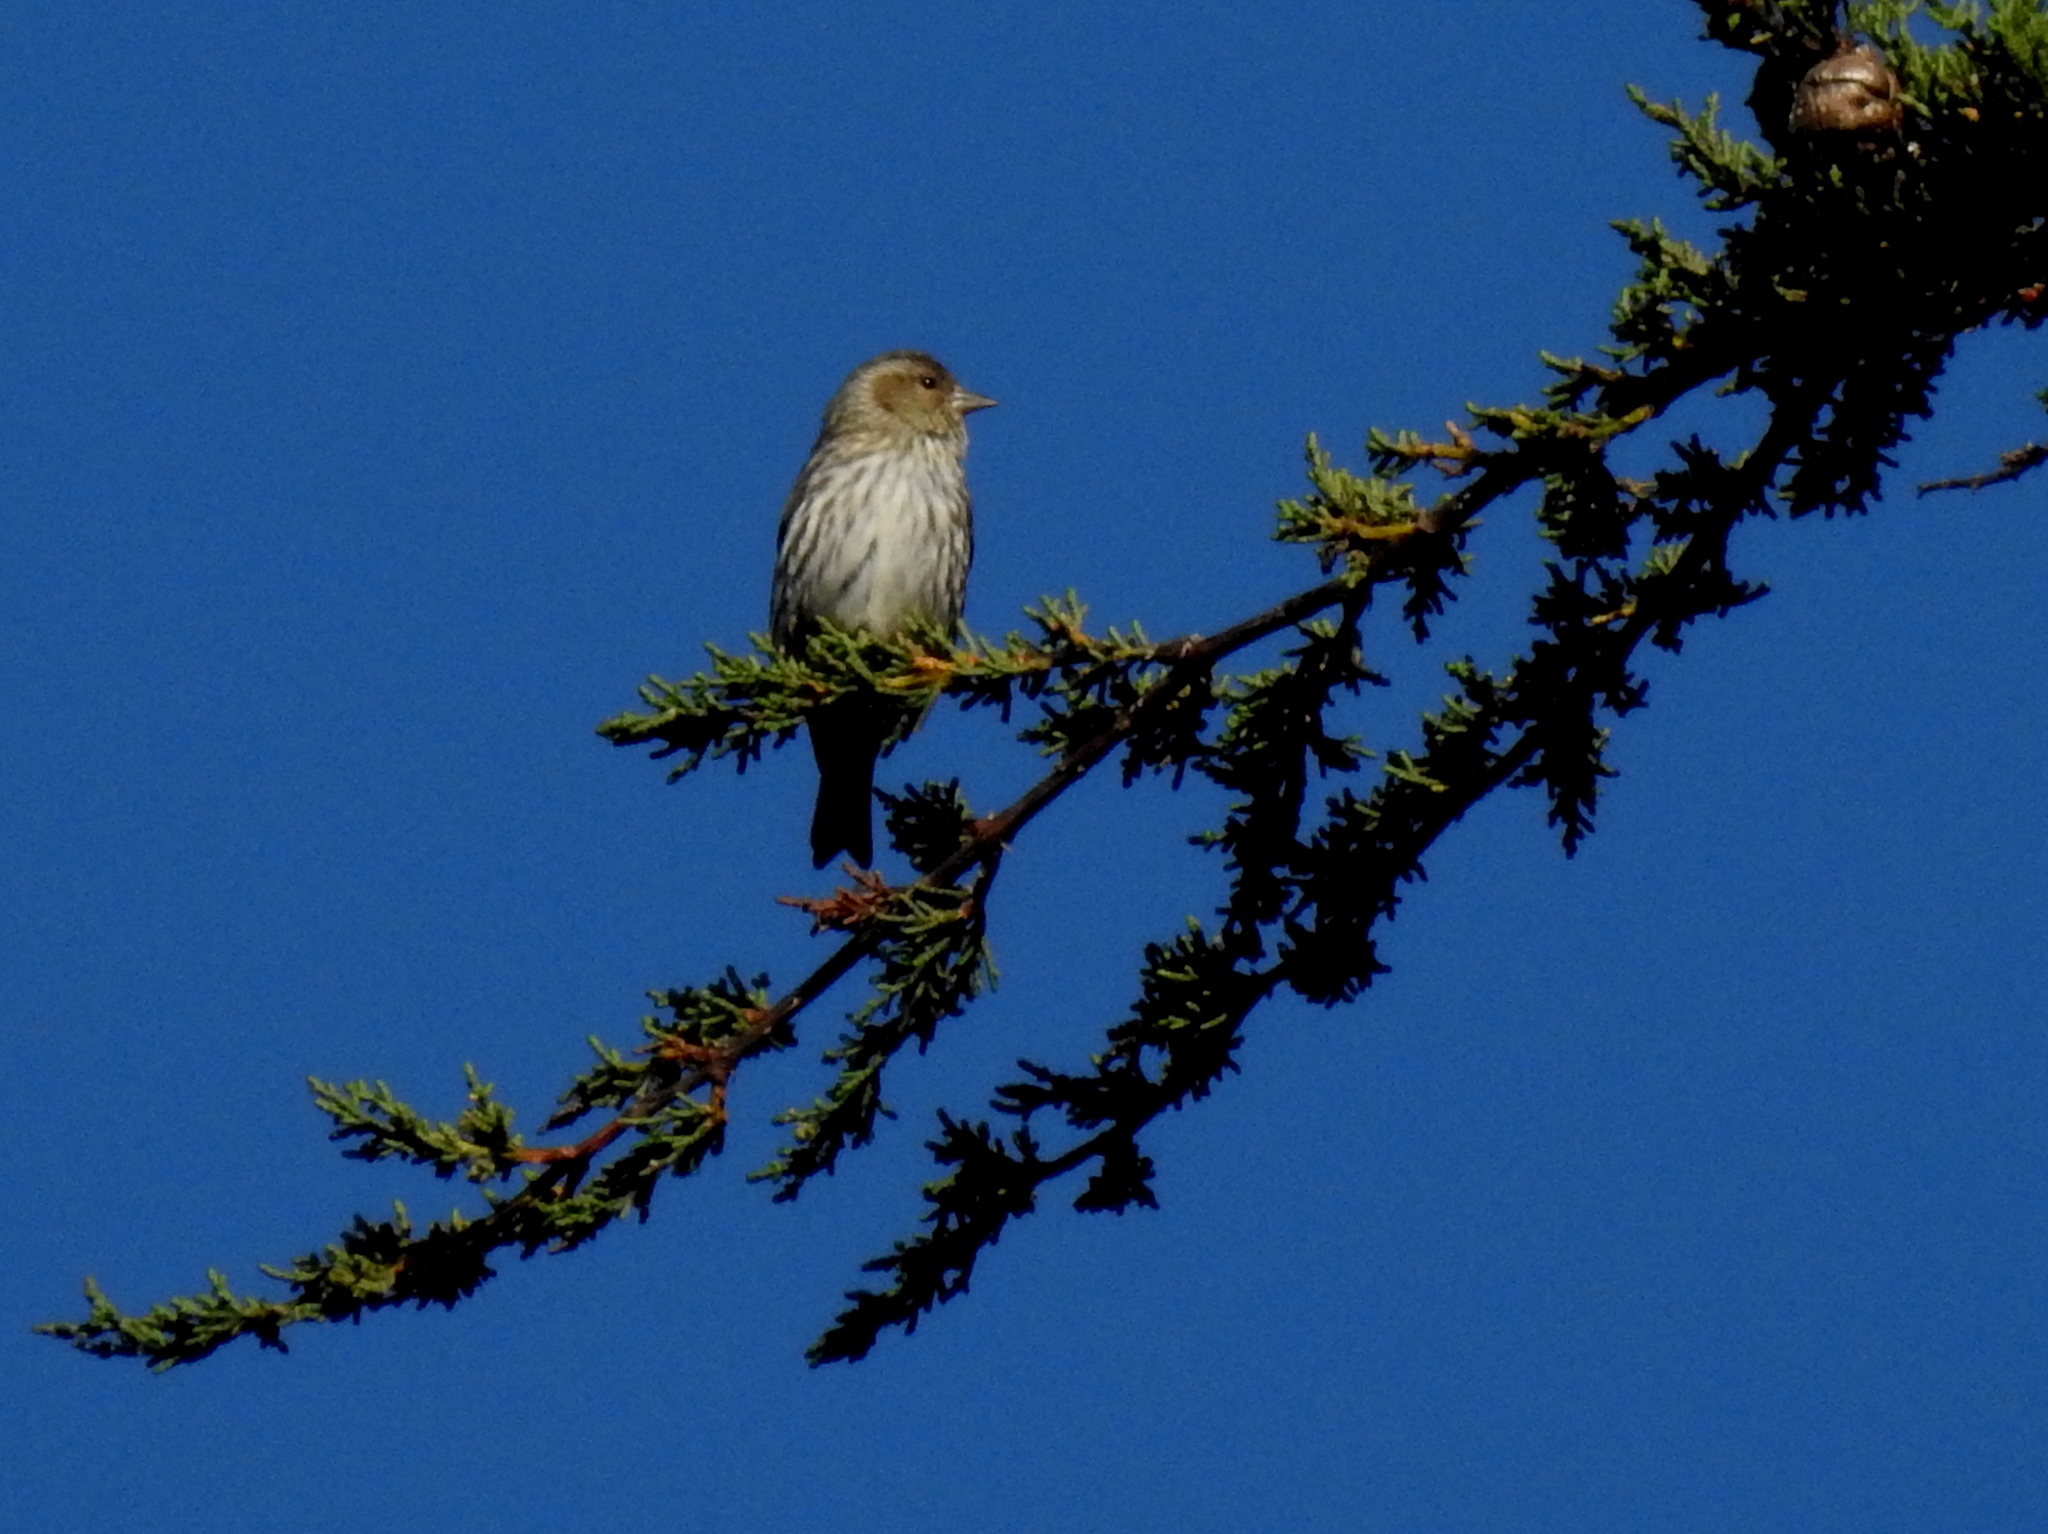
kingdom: Animalia
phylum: Chordata
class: Aves
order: Passeriformes
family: Fringillidae
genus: Spinus
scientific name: Spinus pinus
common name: Pine siskin
